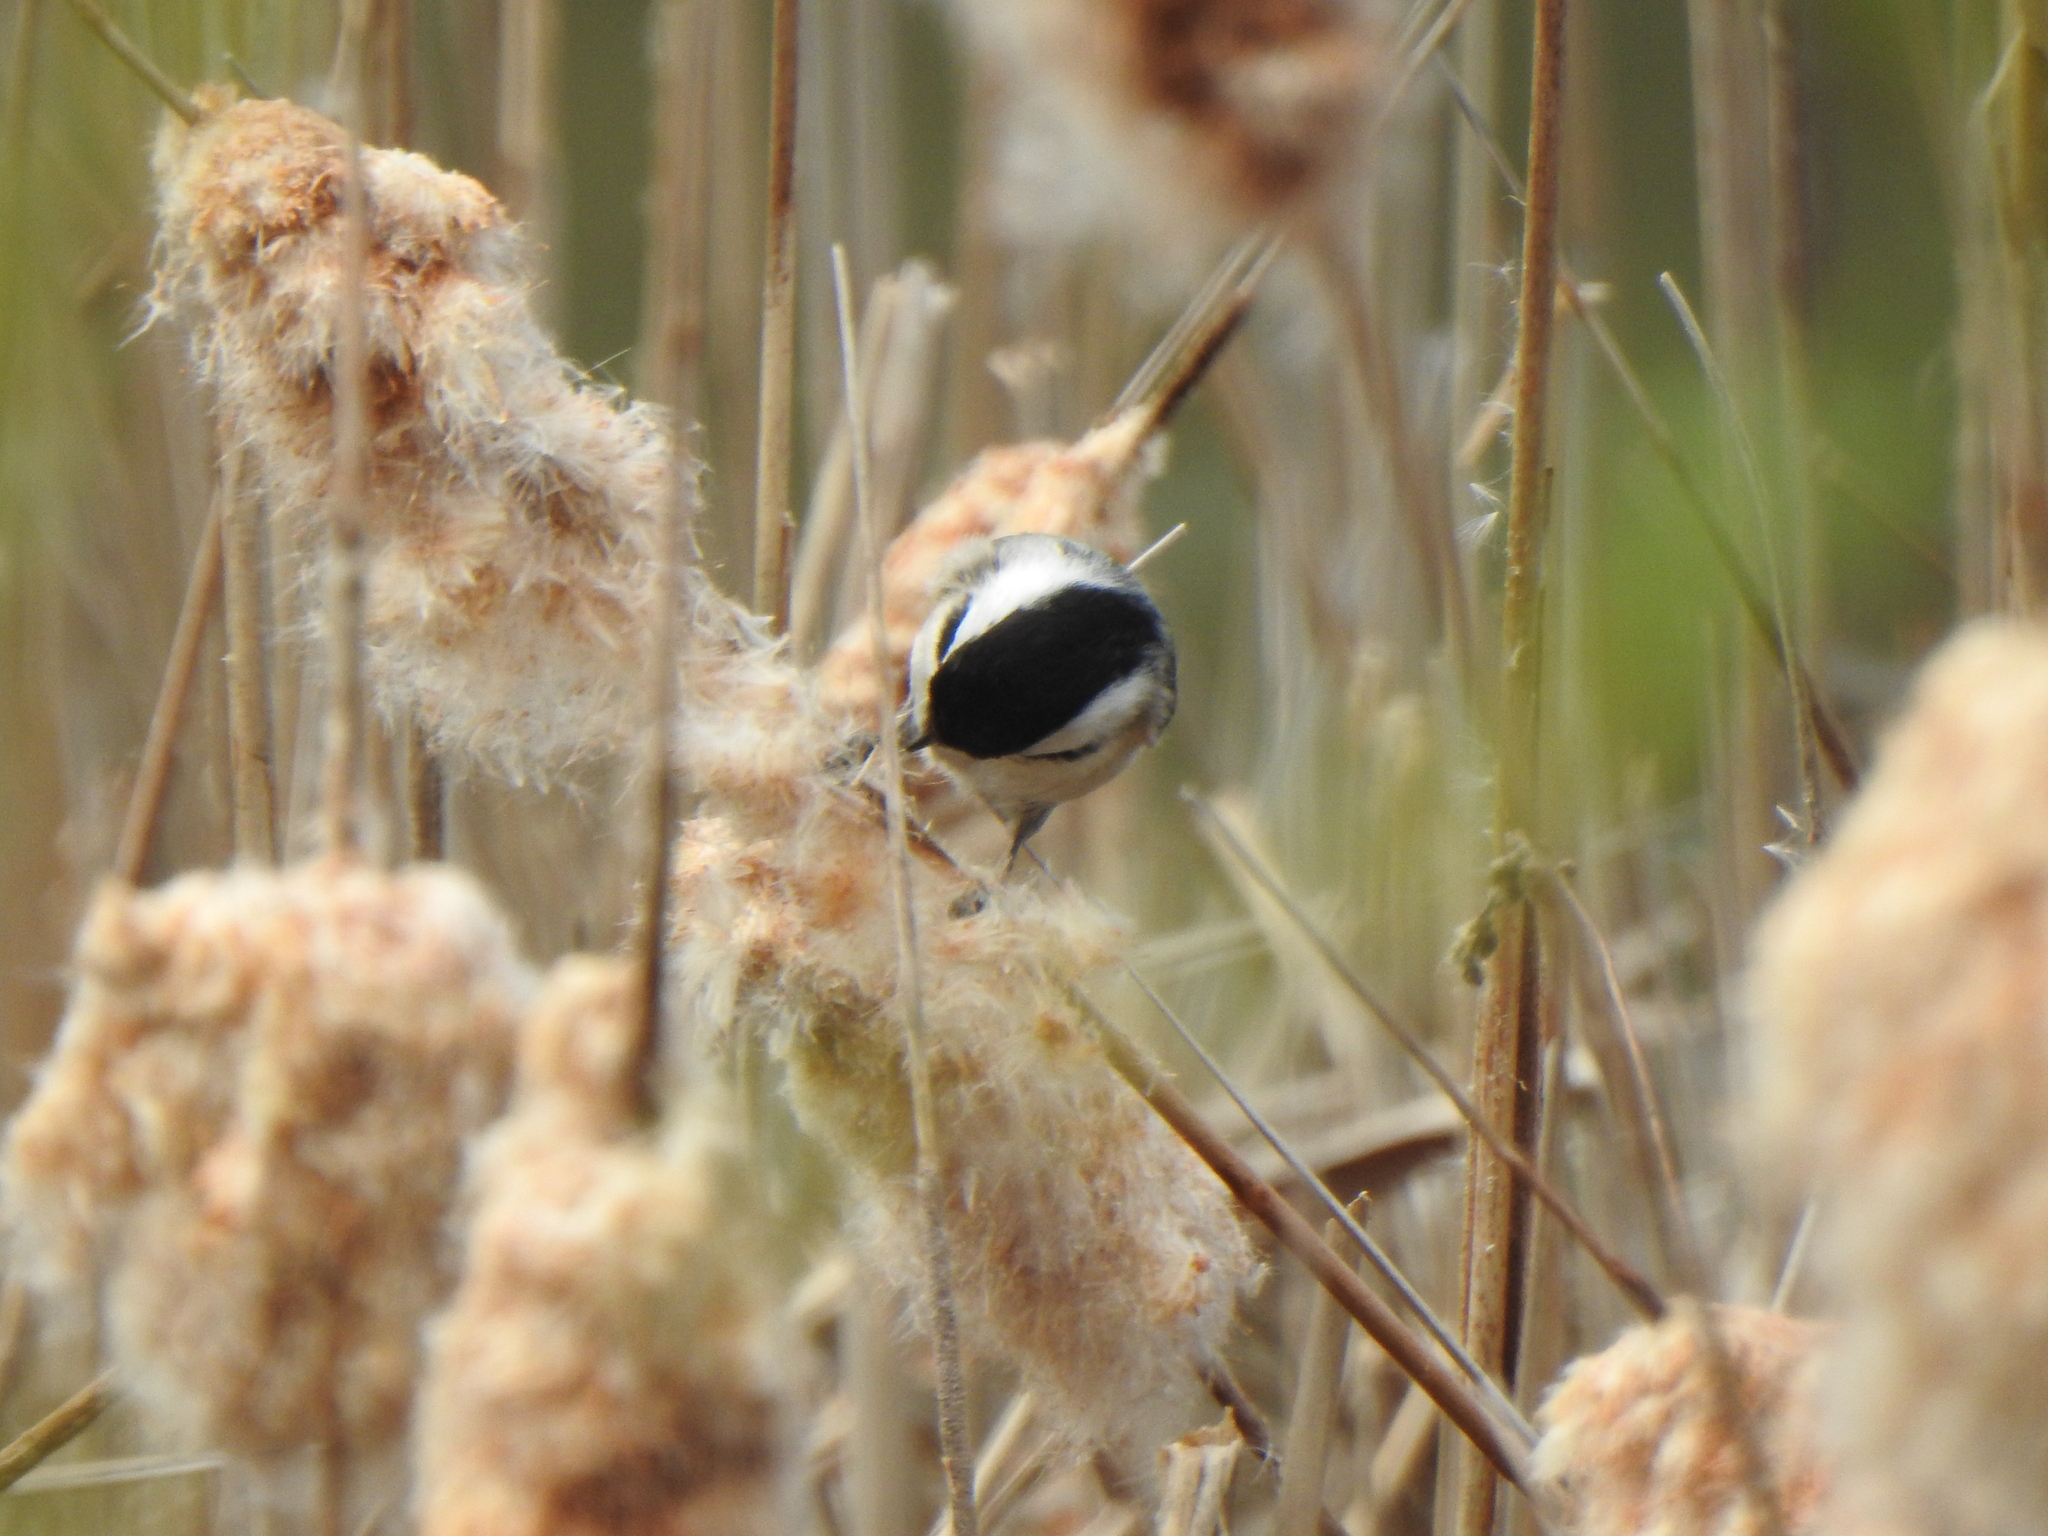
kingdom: Animalia
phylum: Chordata
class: Aves
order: Passeriformes
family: Paridae
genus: Poecile
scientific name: Poecile atricapillus
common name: Black-capped chickadee
